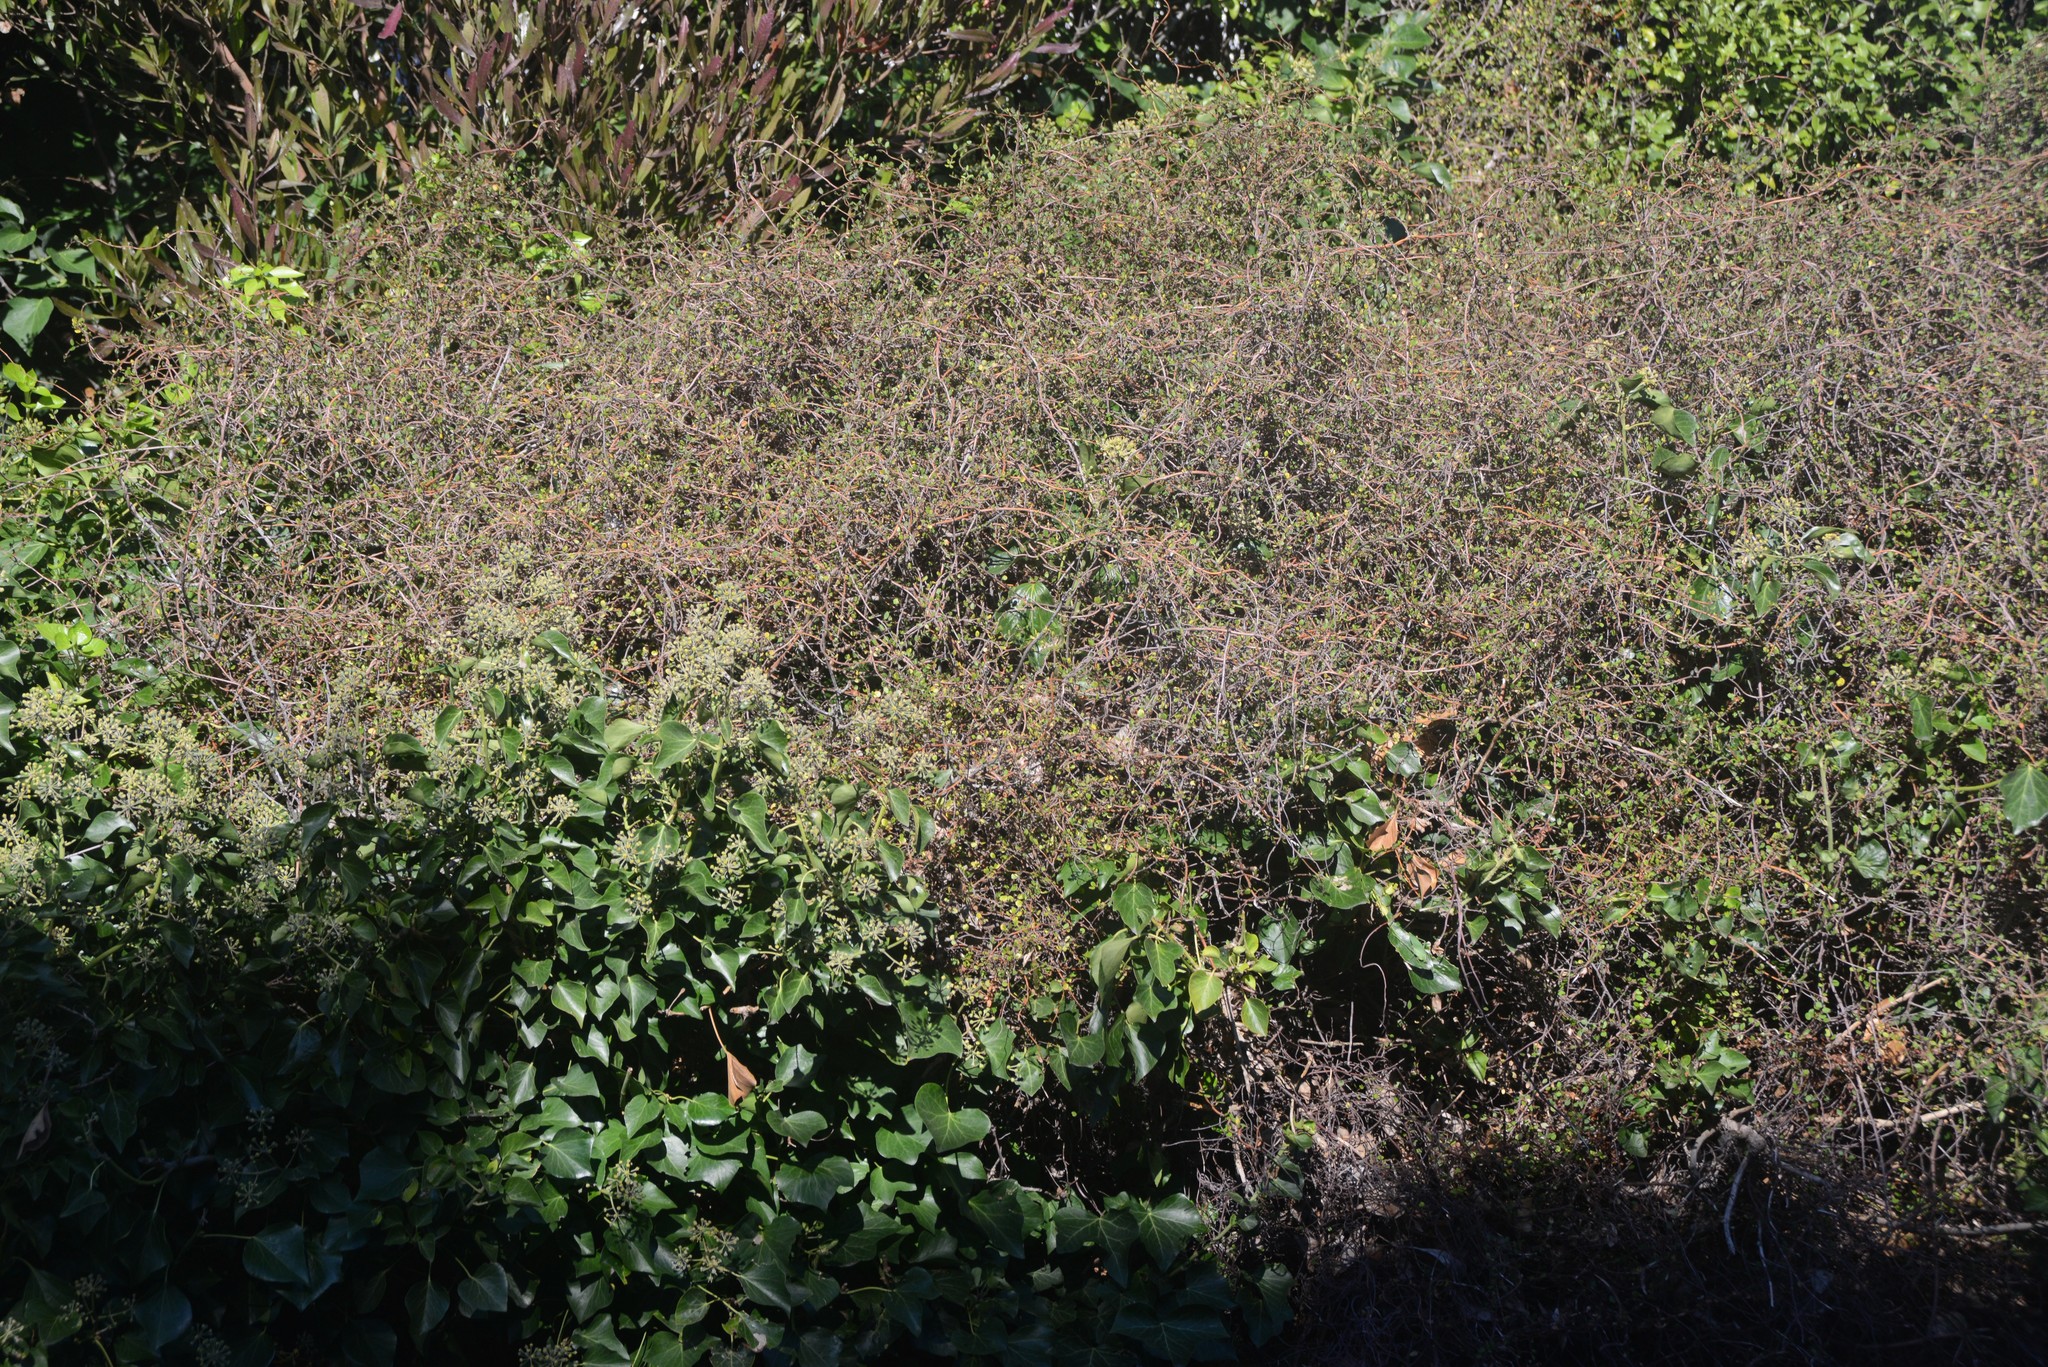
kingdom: Plantae
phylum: Tracheophyta
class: Magnoliopsida
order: Caryophyllales
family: Polygonaceae
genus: Muehlenbeckia
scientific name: Muehlenbeckia complexa
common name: Wireplant
